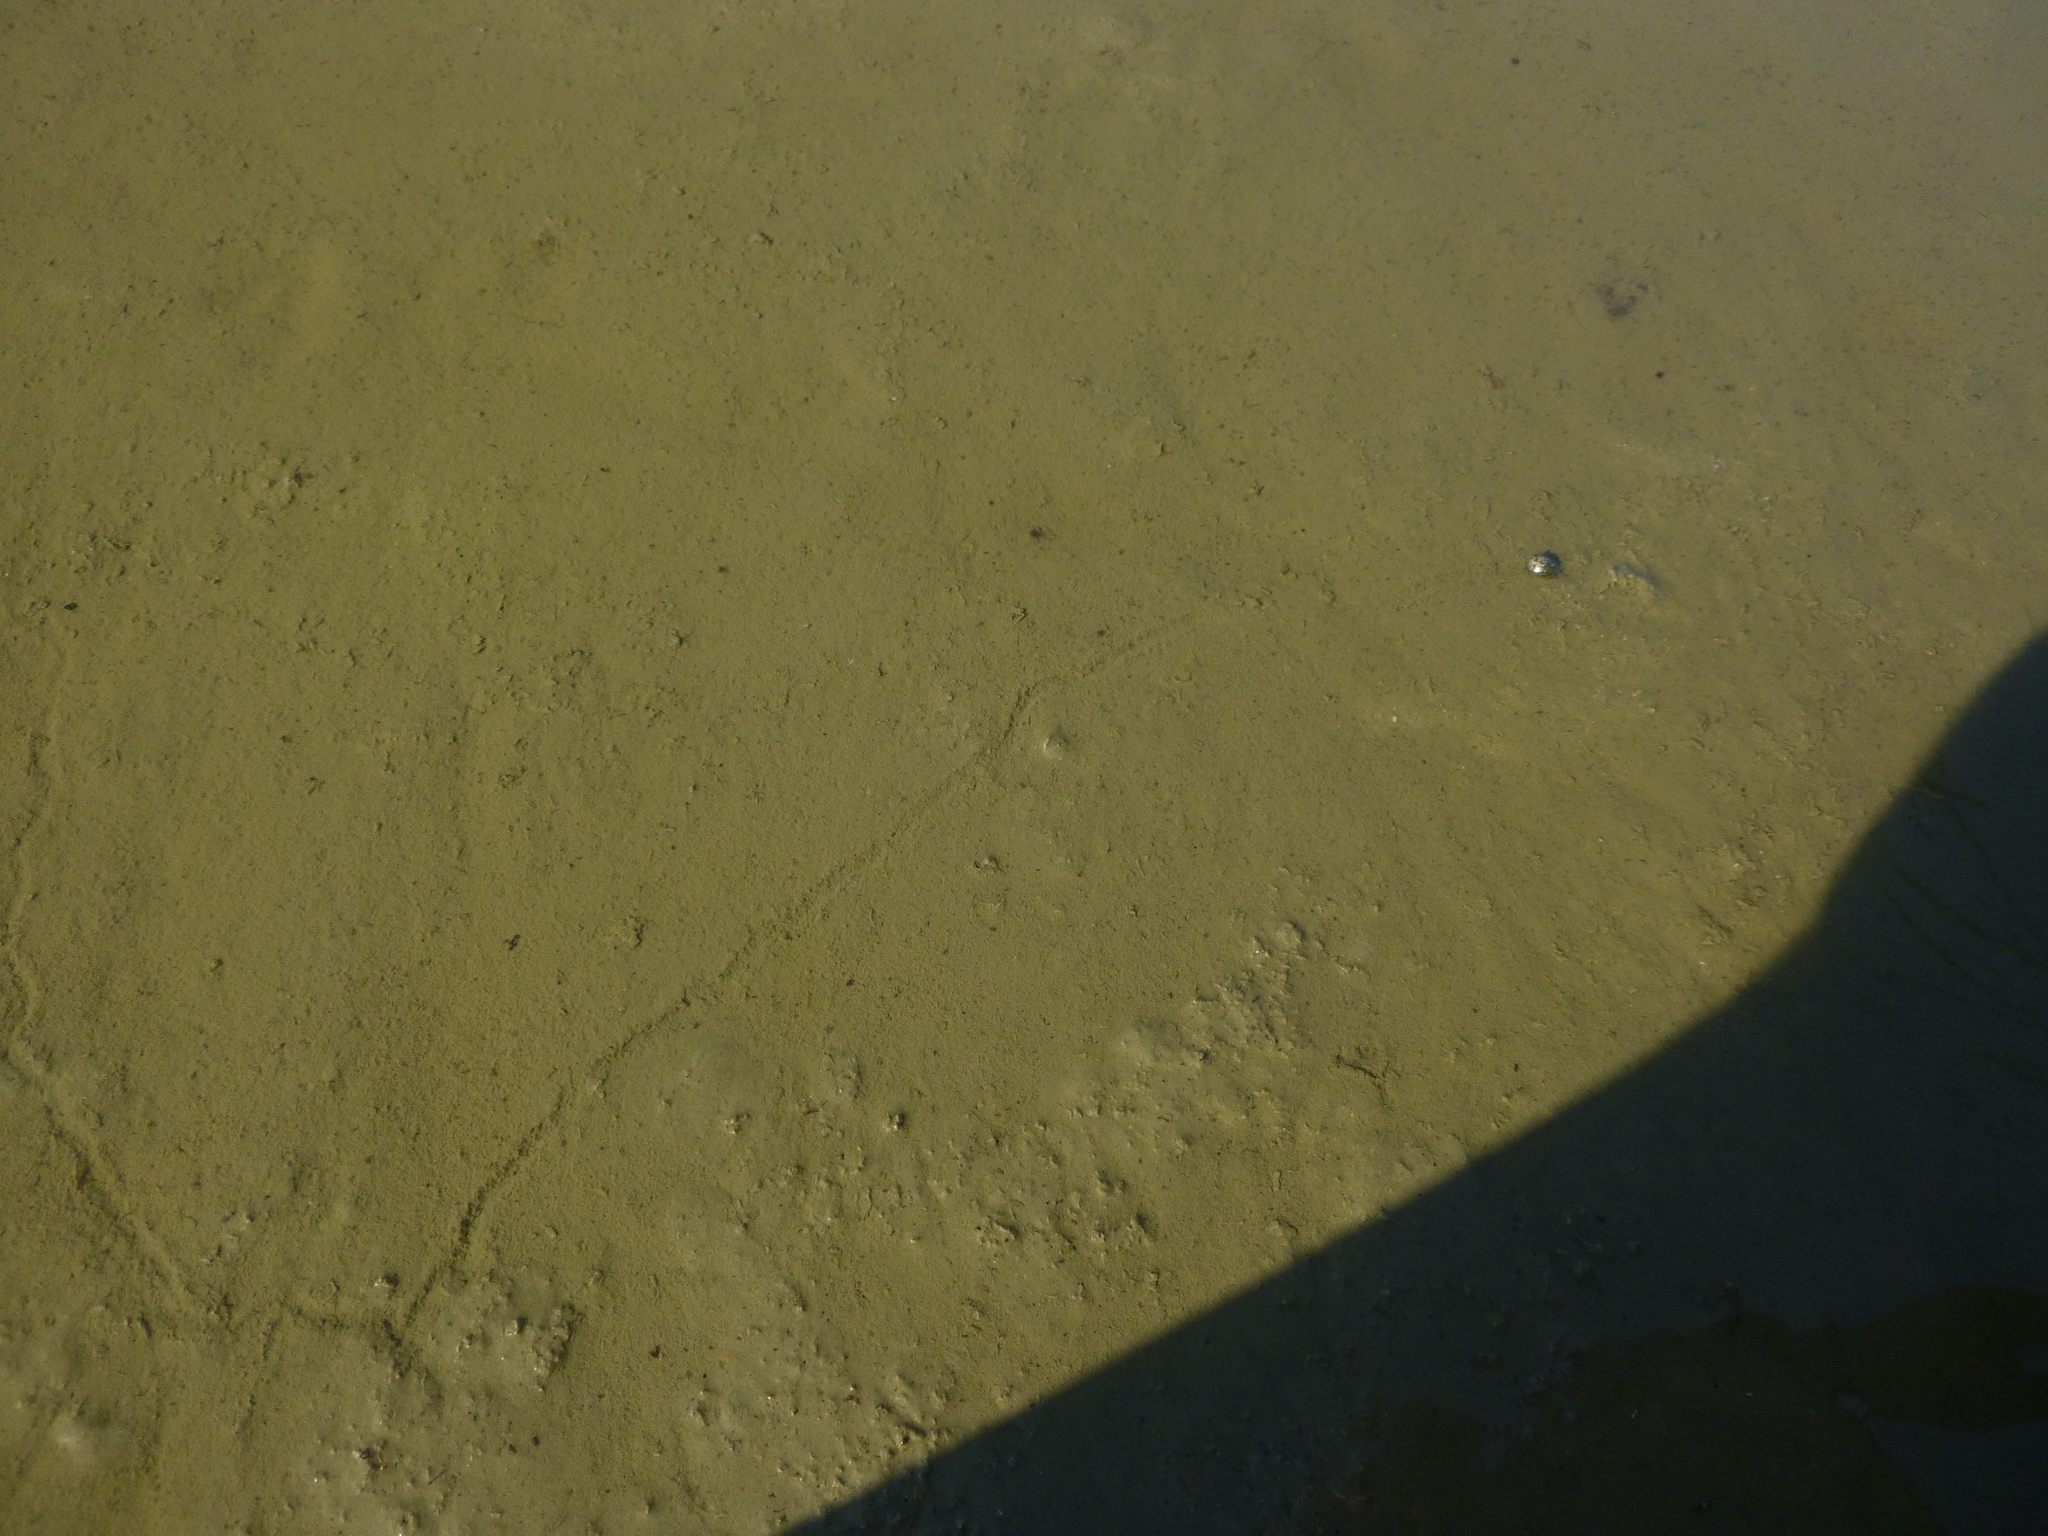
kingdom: Animalia
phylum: Mollusca
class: Gastropoda
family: Lymnaeidae
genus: Radix
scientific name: Radix auricularia
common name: Ear pond snail
